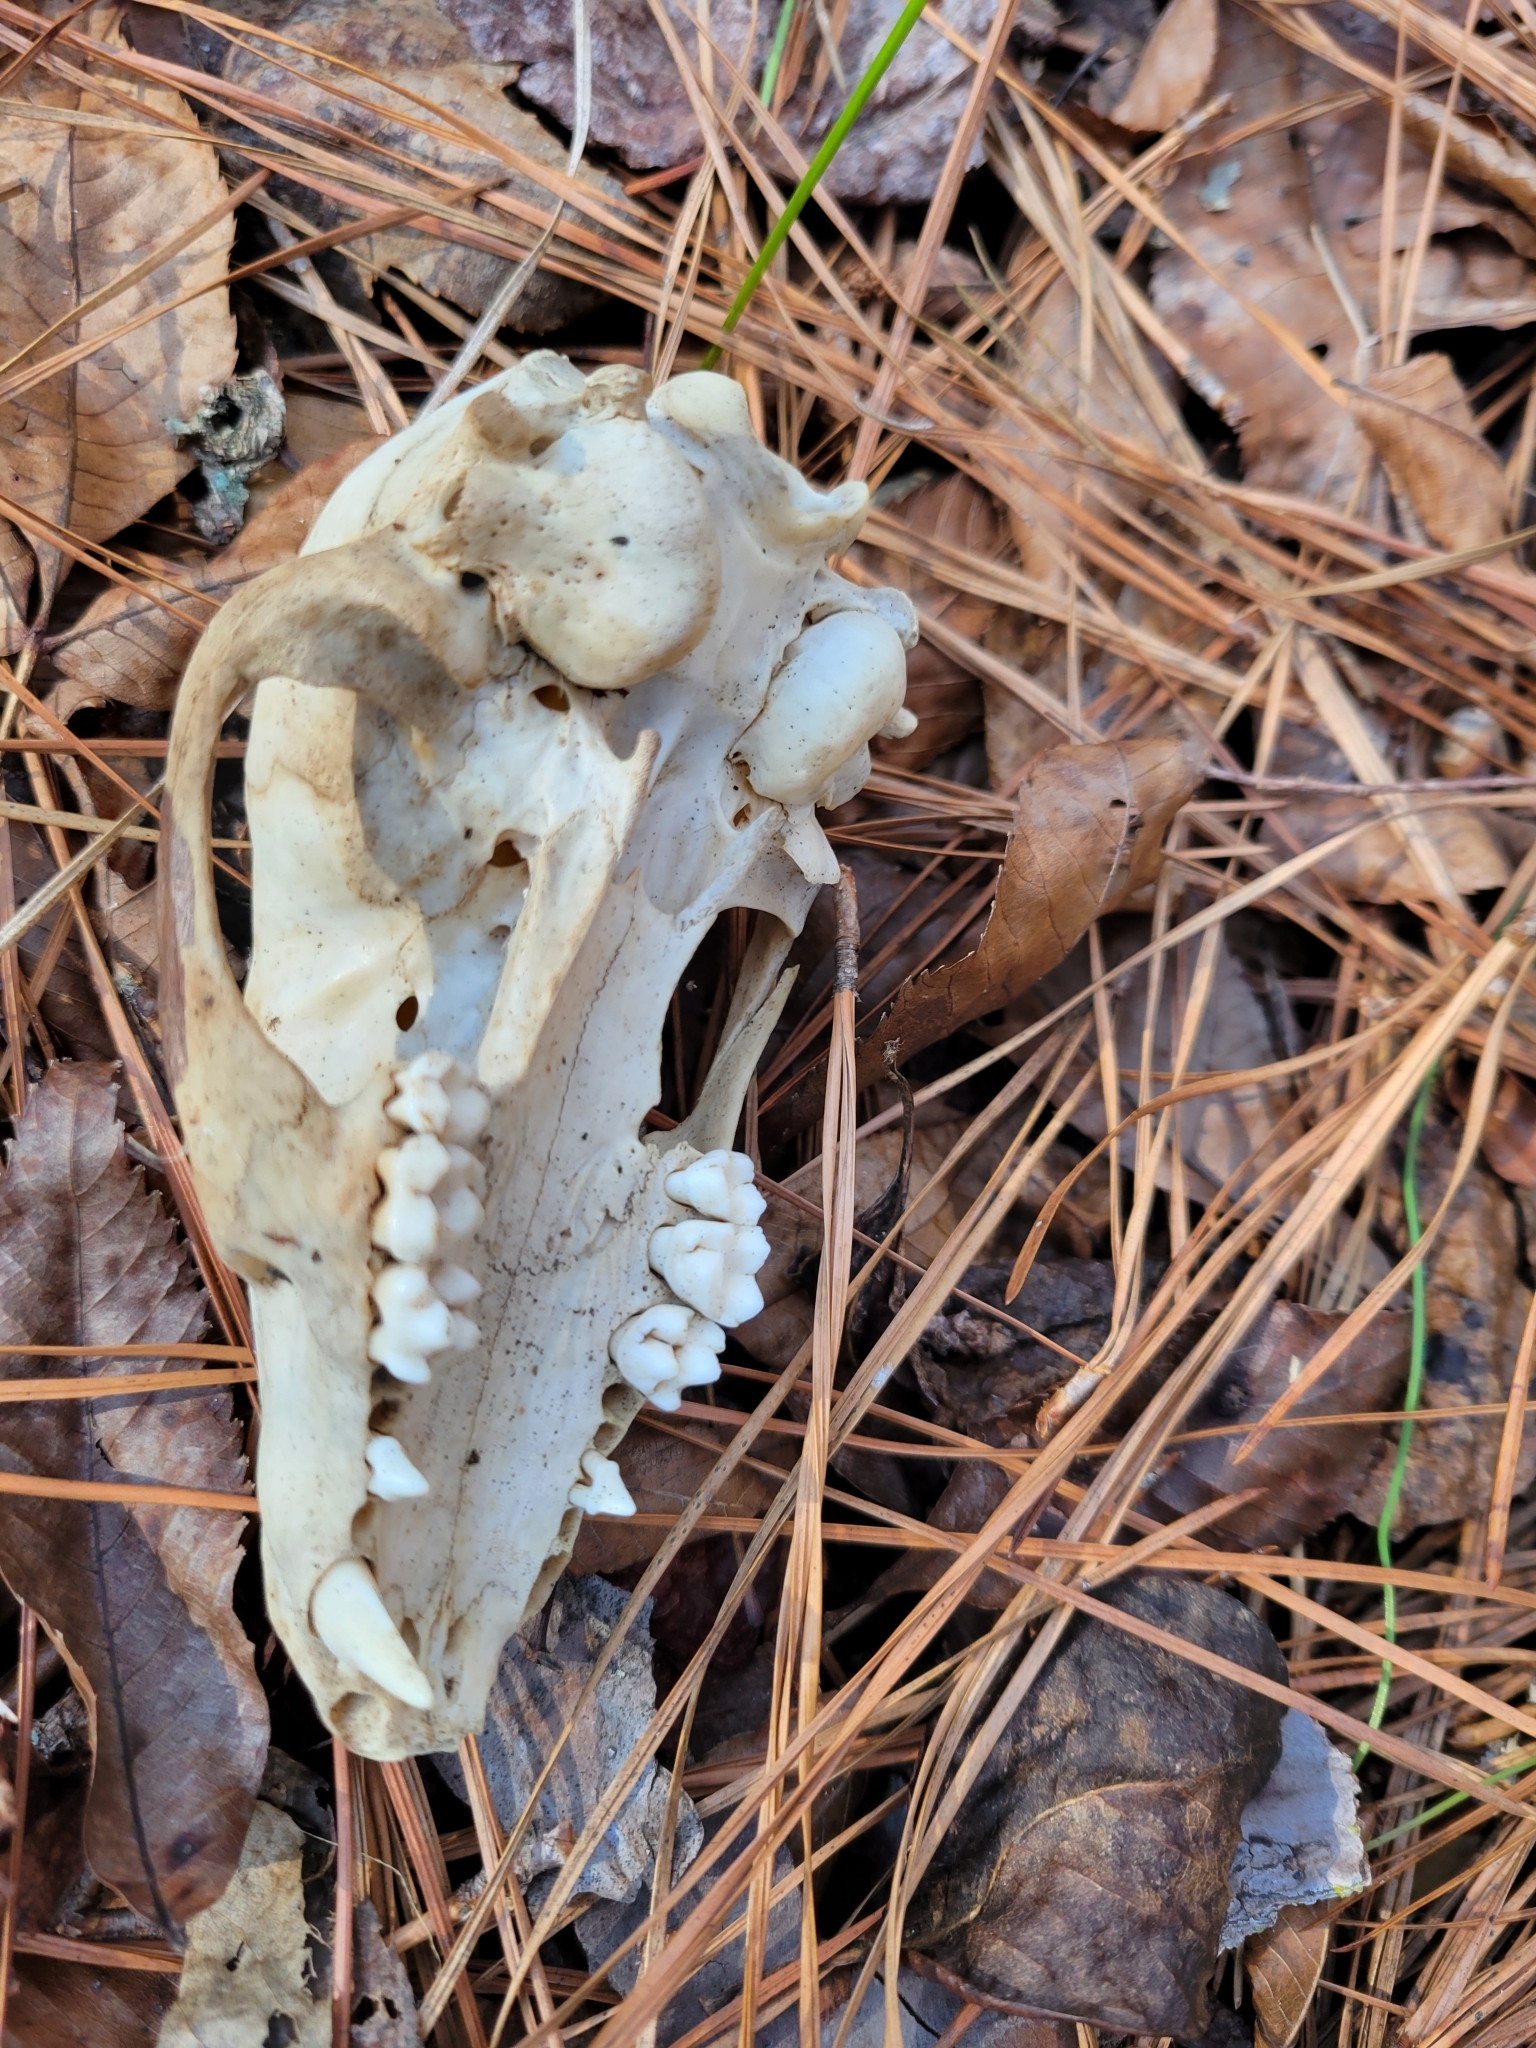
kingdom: Animalia
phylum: Chordata
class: Mammalia
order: Carnivora
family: Procyonidae
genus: Procyon
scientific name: Procyon lotor
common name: Raccoon
